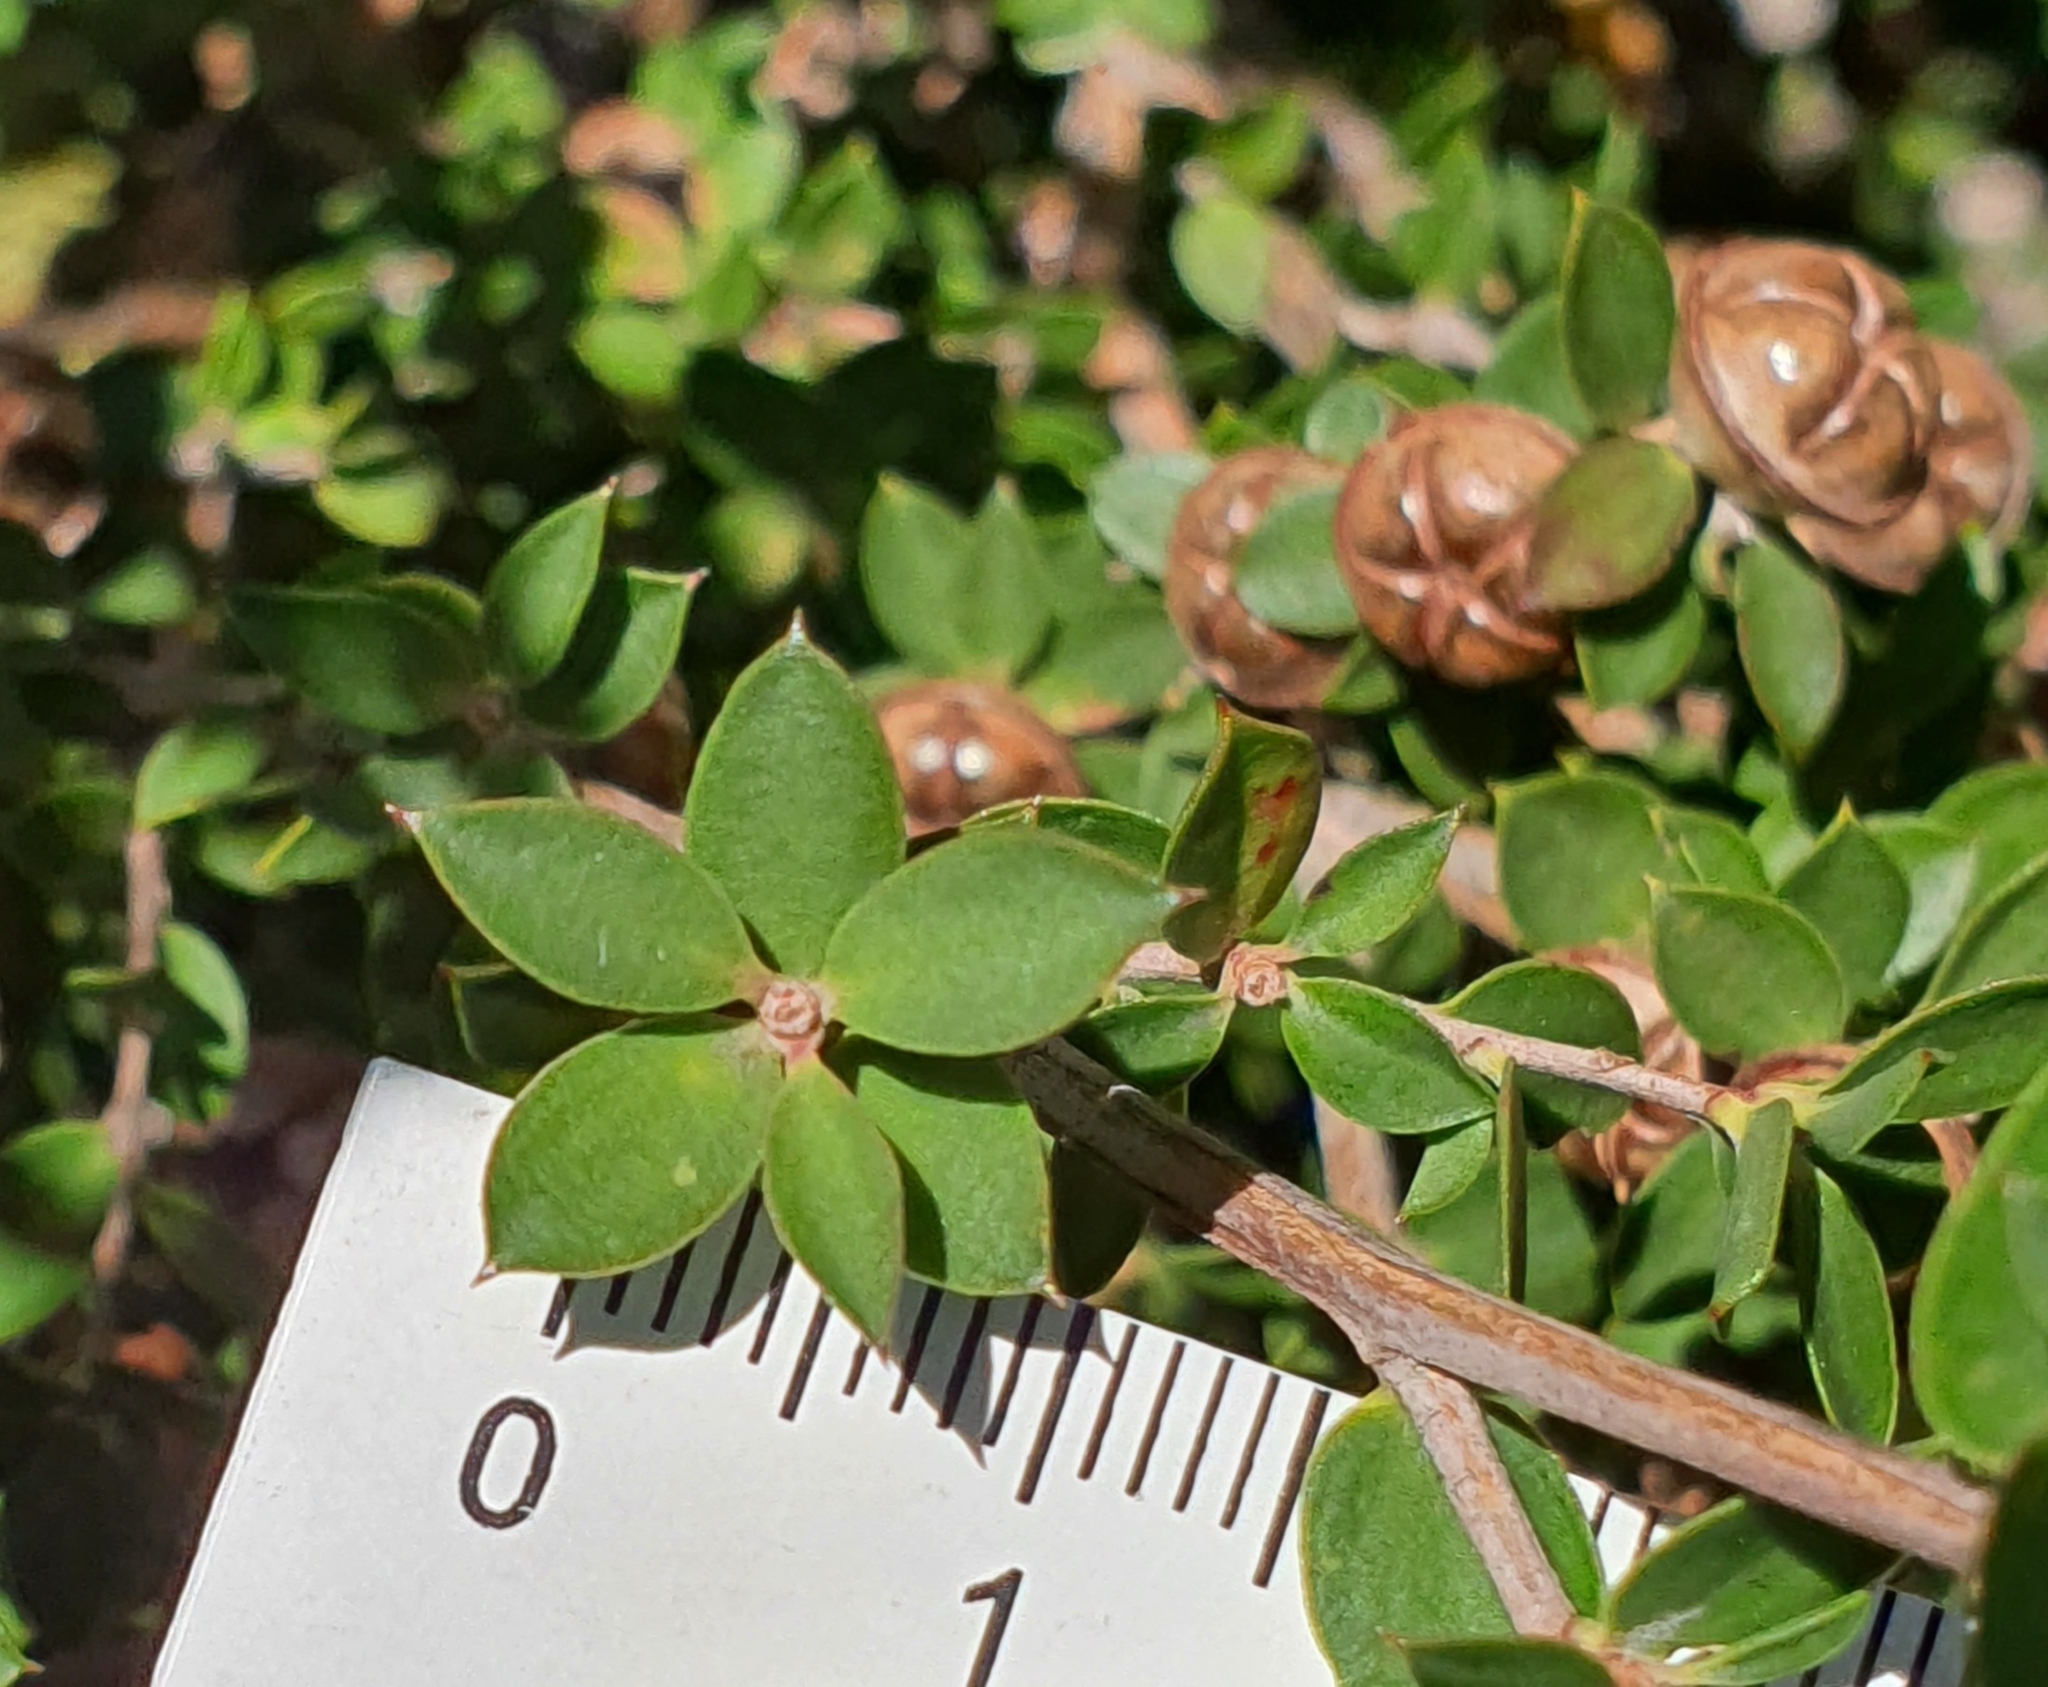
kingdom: Plantae
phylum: Tracheophyta
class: Magnoliopsida
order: Myrtales
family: Myrtaceae
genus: Leptospermum
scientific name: Leptospermum scoparium
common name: Broom tea-tree
